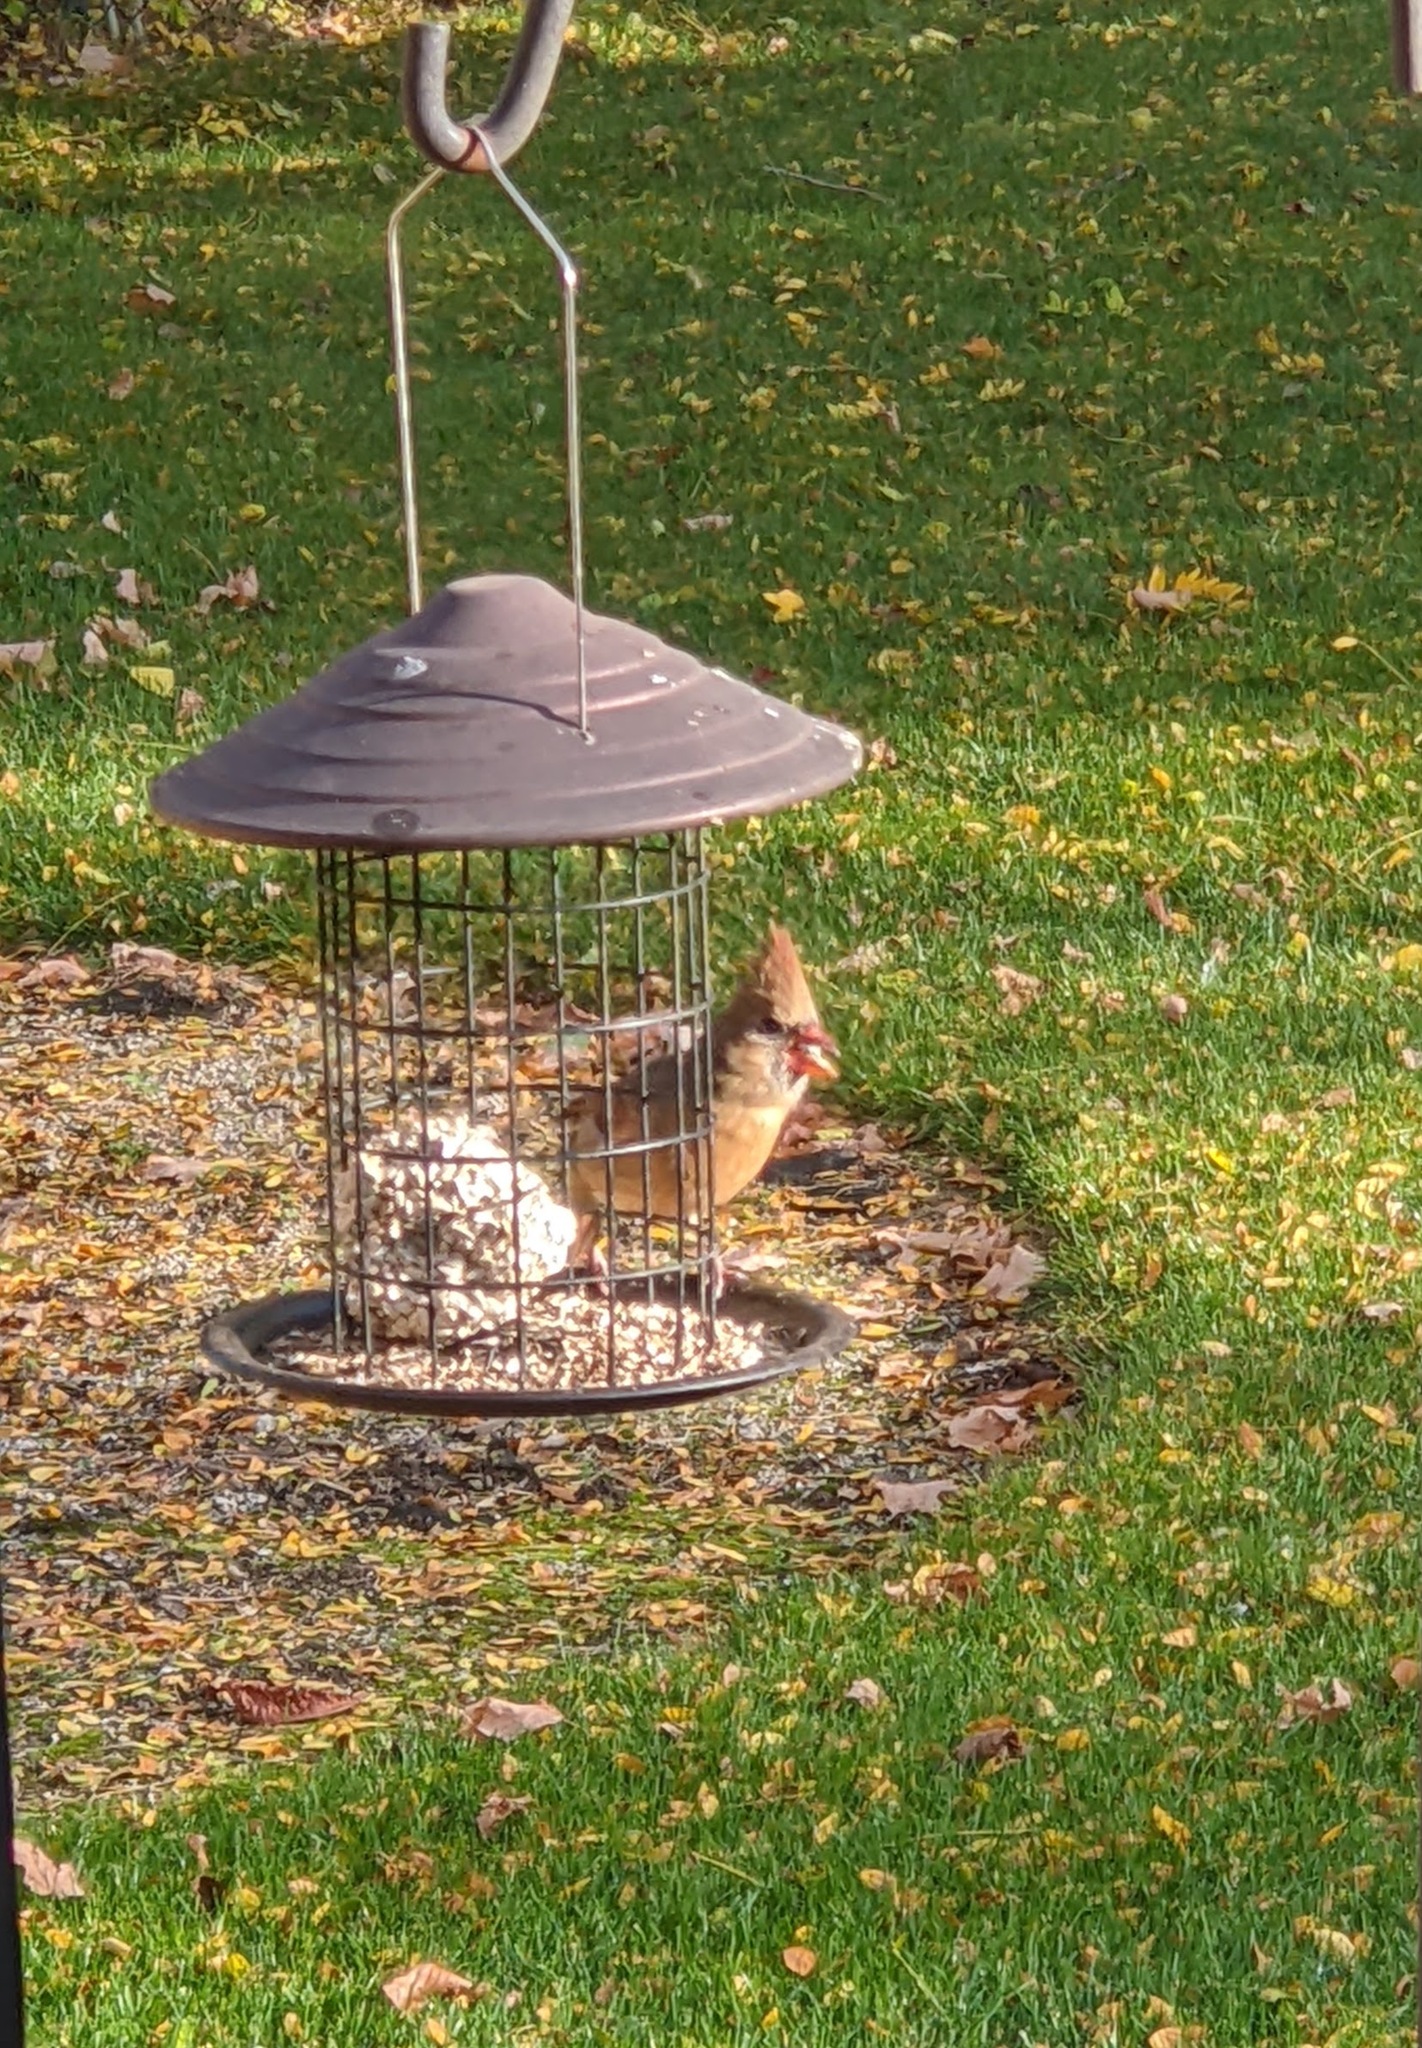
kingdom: Animalia
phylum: Chordata
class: Aves
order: Passeriformes
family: Cardinalidae
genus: Cardinalis
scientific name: Cardinalis cardinalis
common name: Northern cardinal
